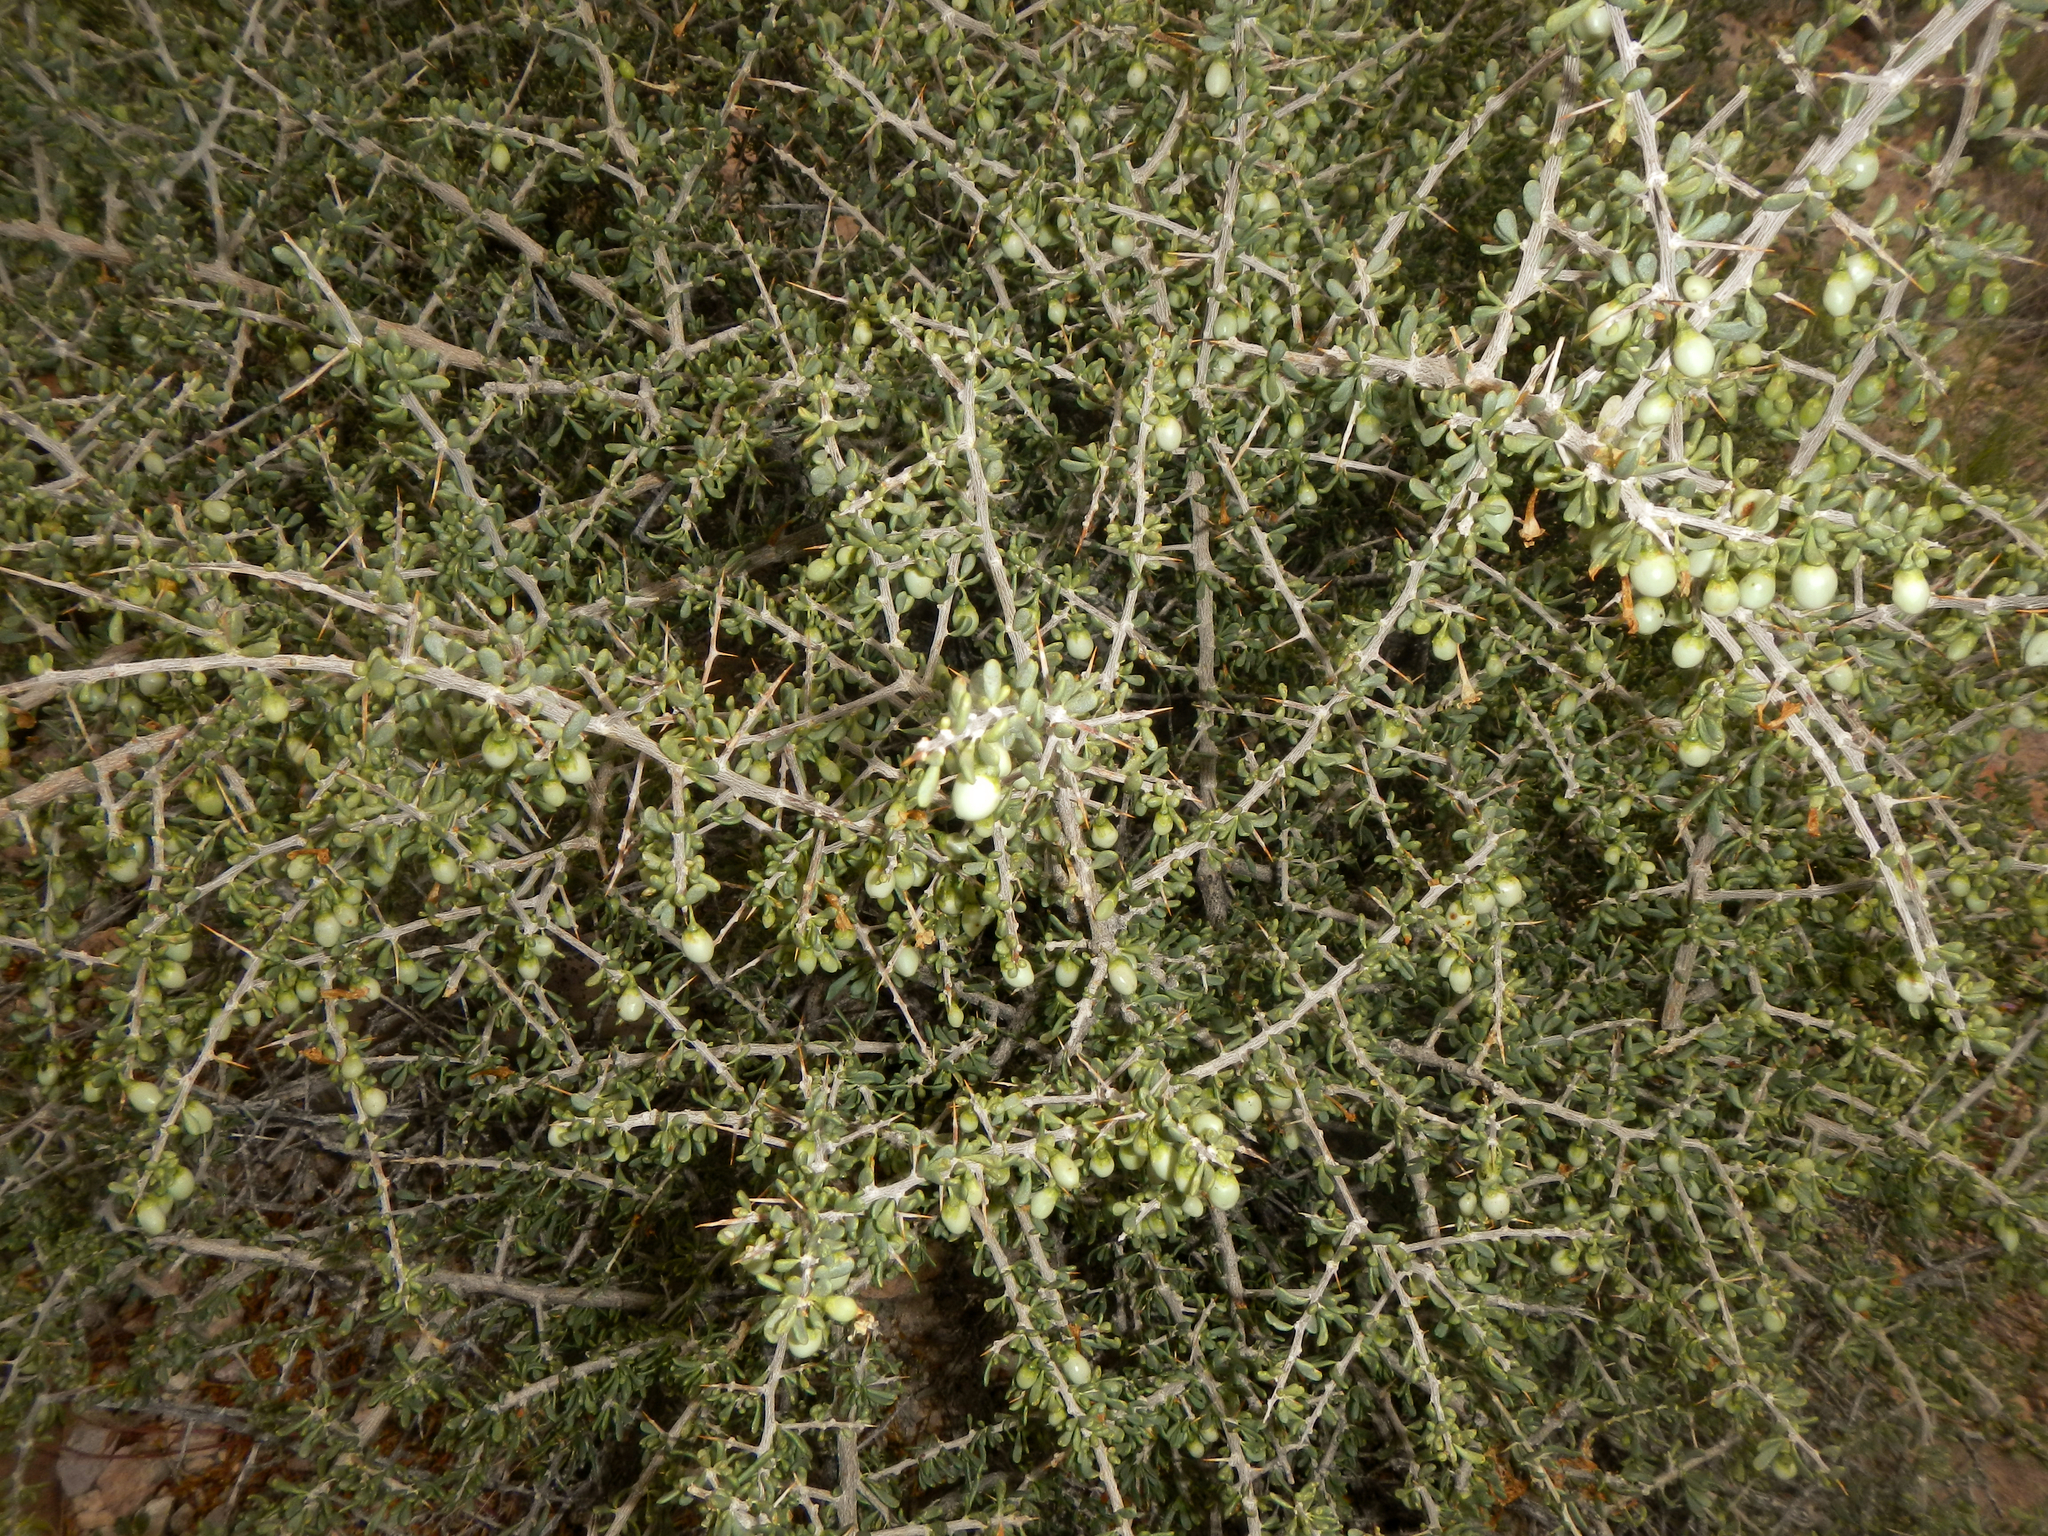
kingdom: Plantae
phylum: Tracheophyta
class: Magnoliopsida
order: Solanales
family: Solanaceae
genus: Lycium
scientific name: Lycium andersonii
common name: Water-jacket
